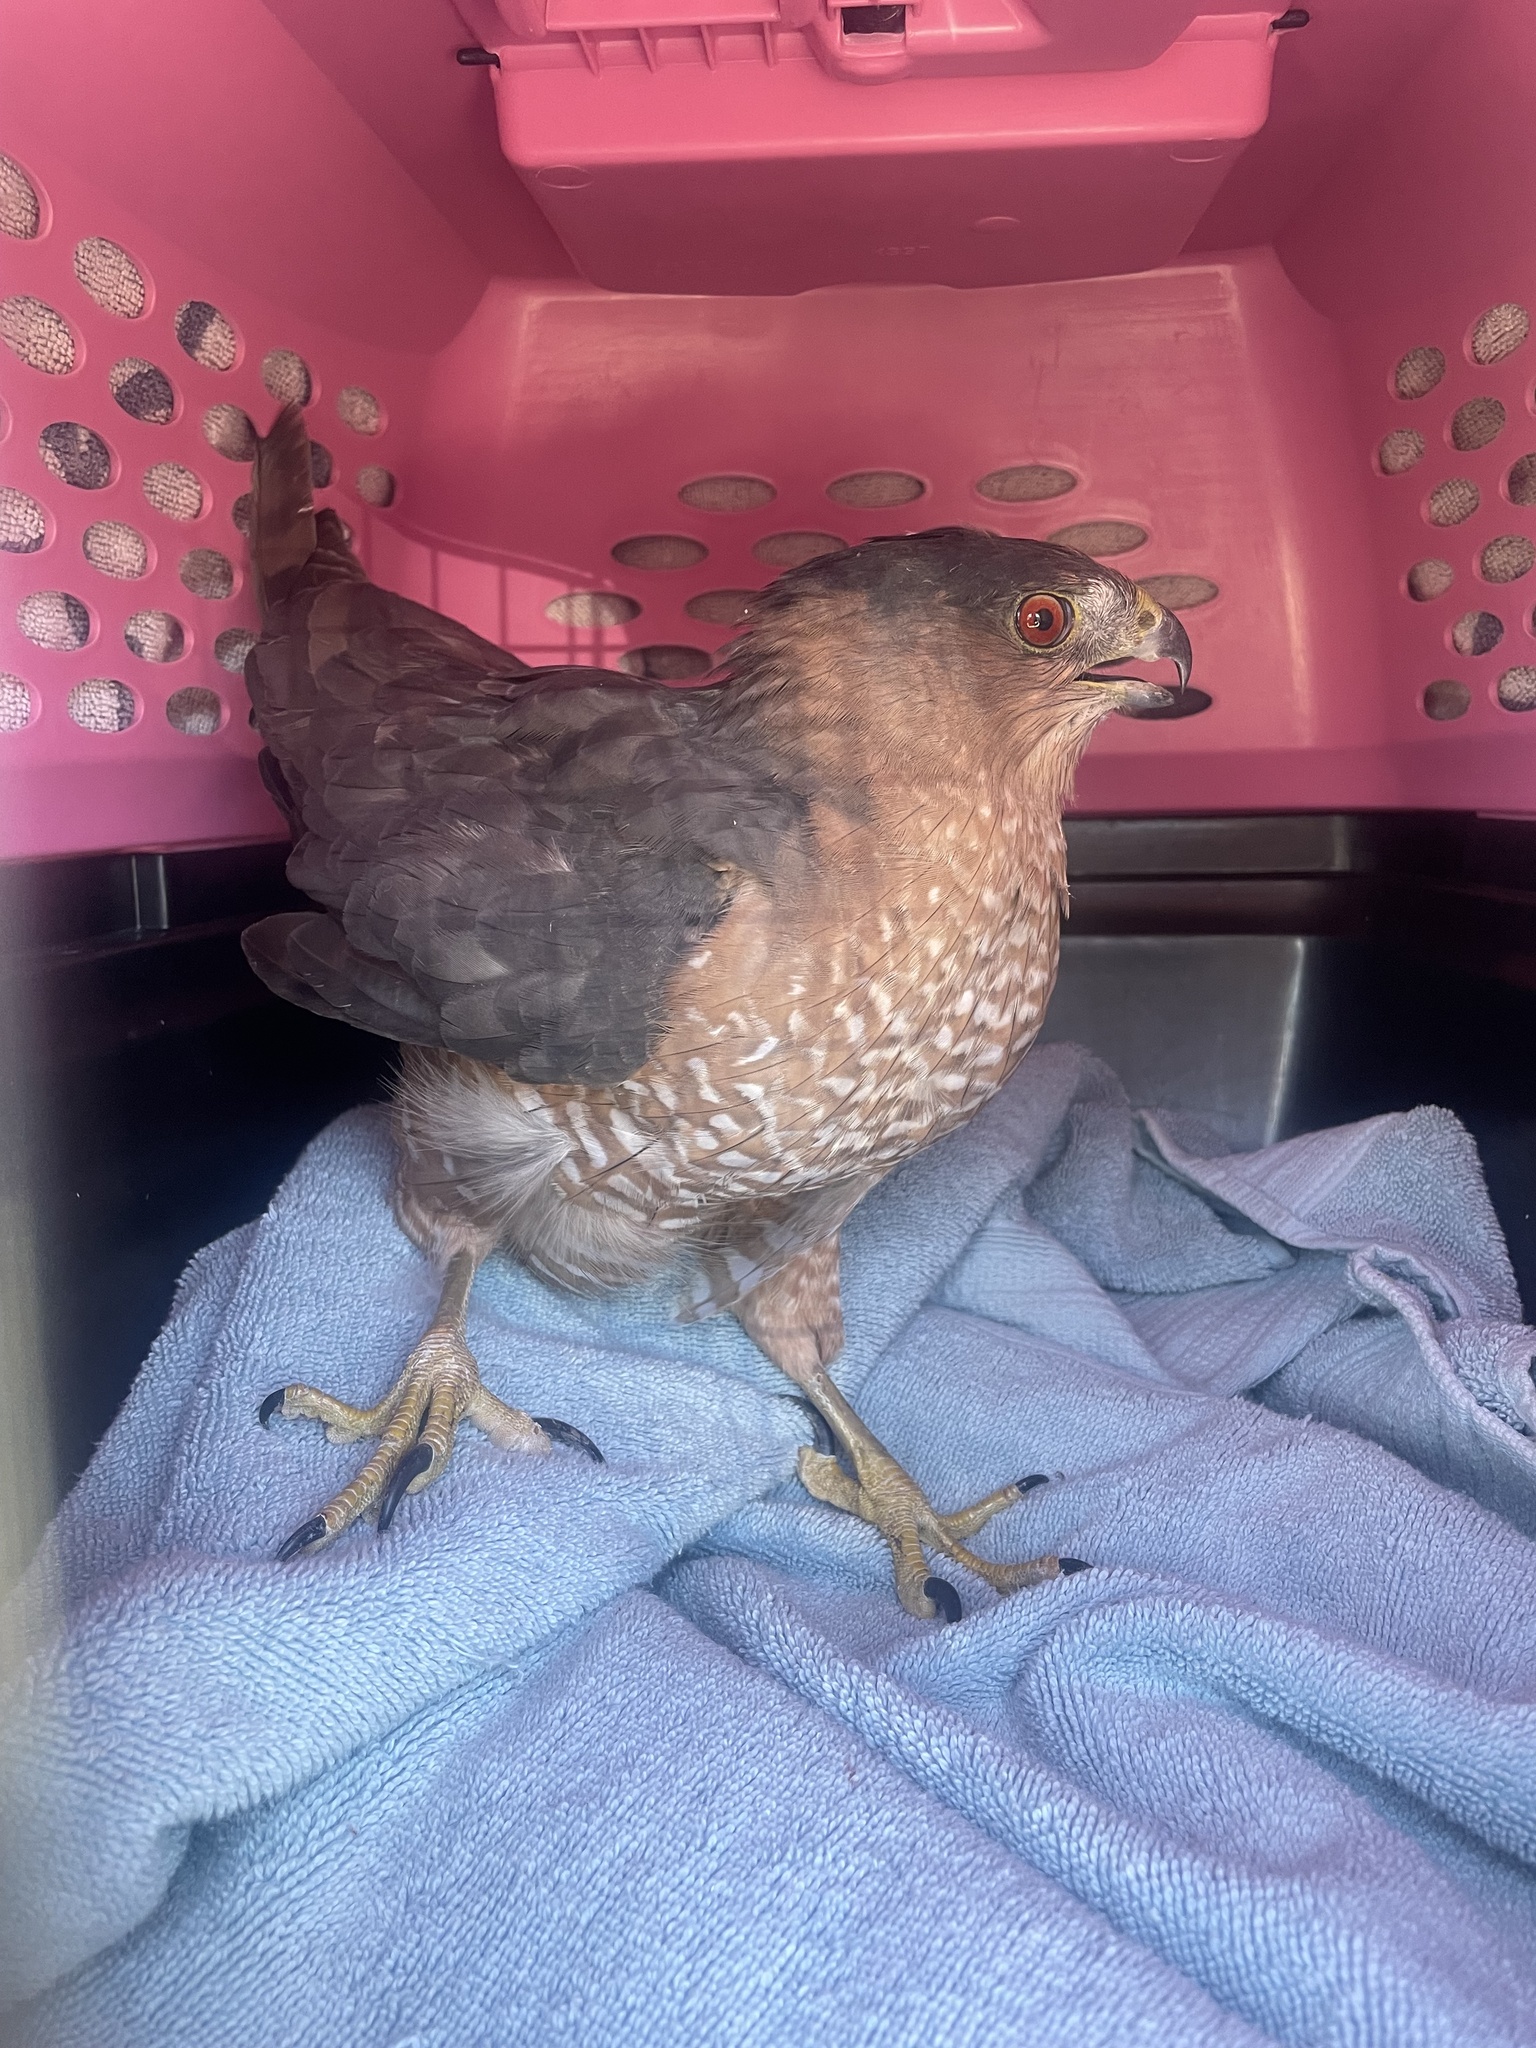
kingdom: Animalia
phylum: Chordata
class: Aves
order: Accipitriformes
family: Accipitridae
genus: Accipiter
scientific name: Accipiter cooperii
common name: Cooper's hawk
